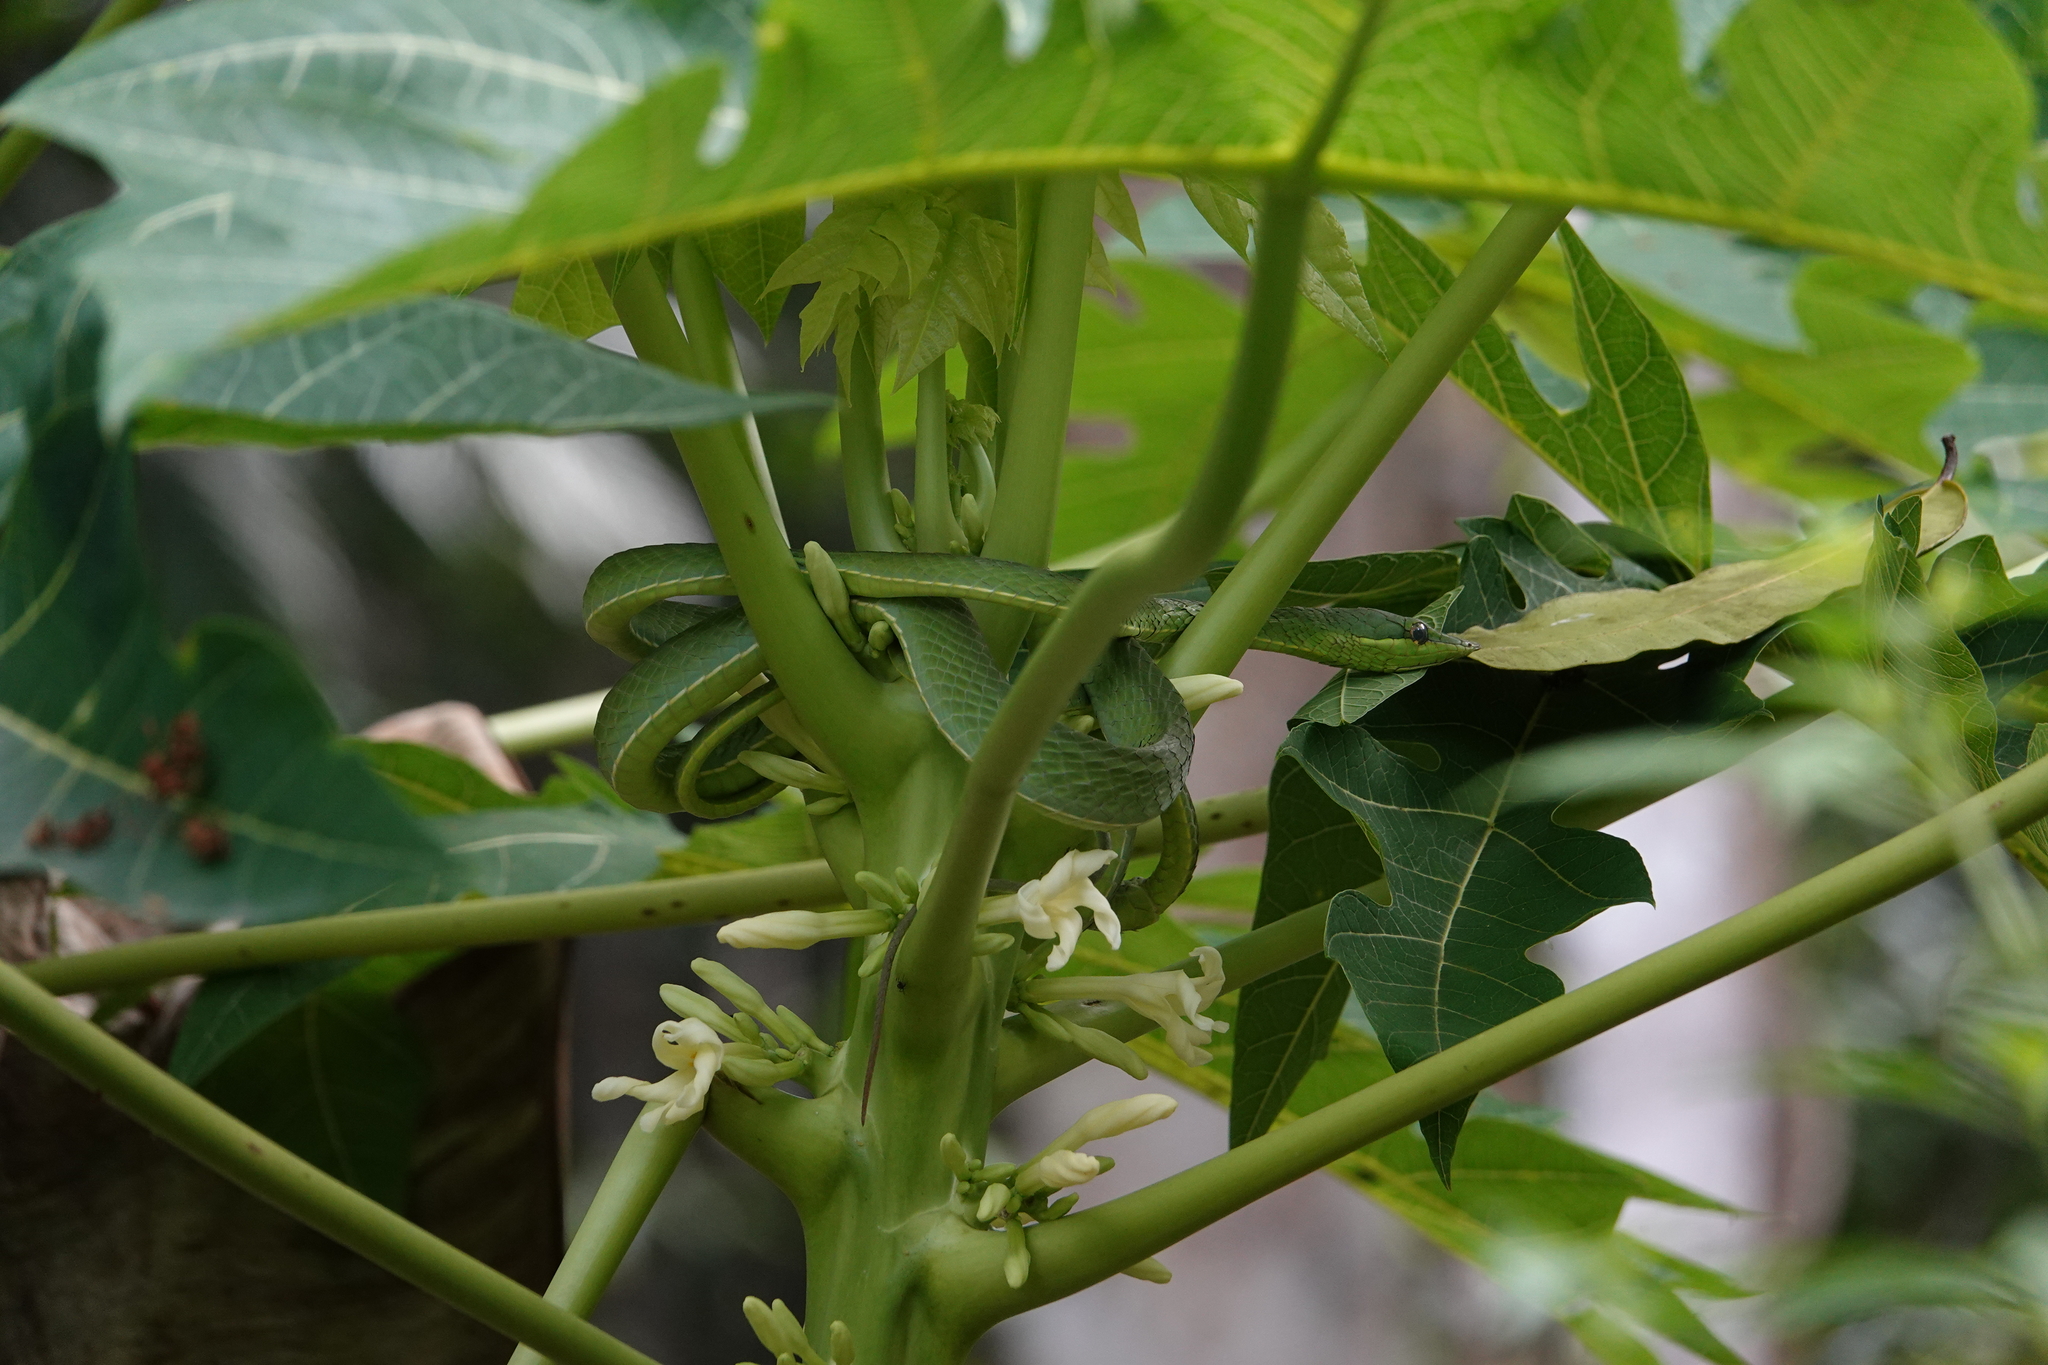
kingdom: Animalia
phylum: Chordata
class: Squamata
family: Colubridae
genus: Oxybelis
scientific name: Oxybelis fulgidus
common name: Green vine snake
